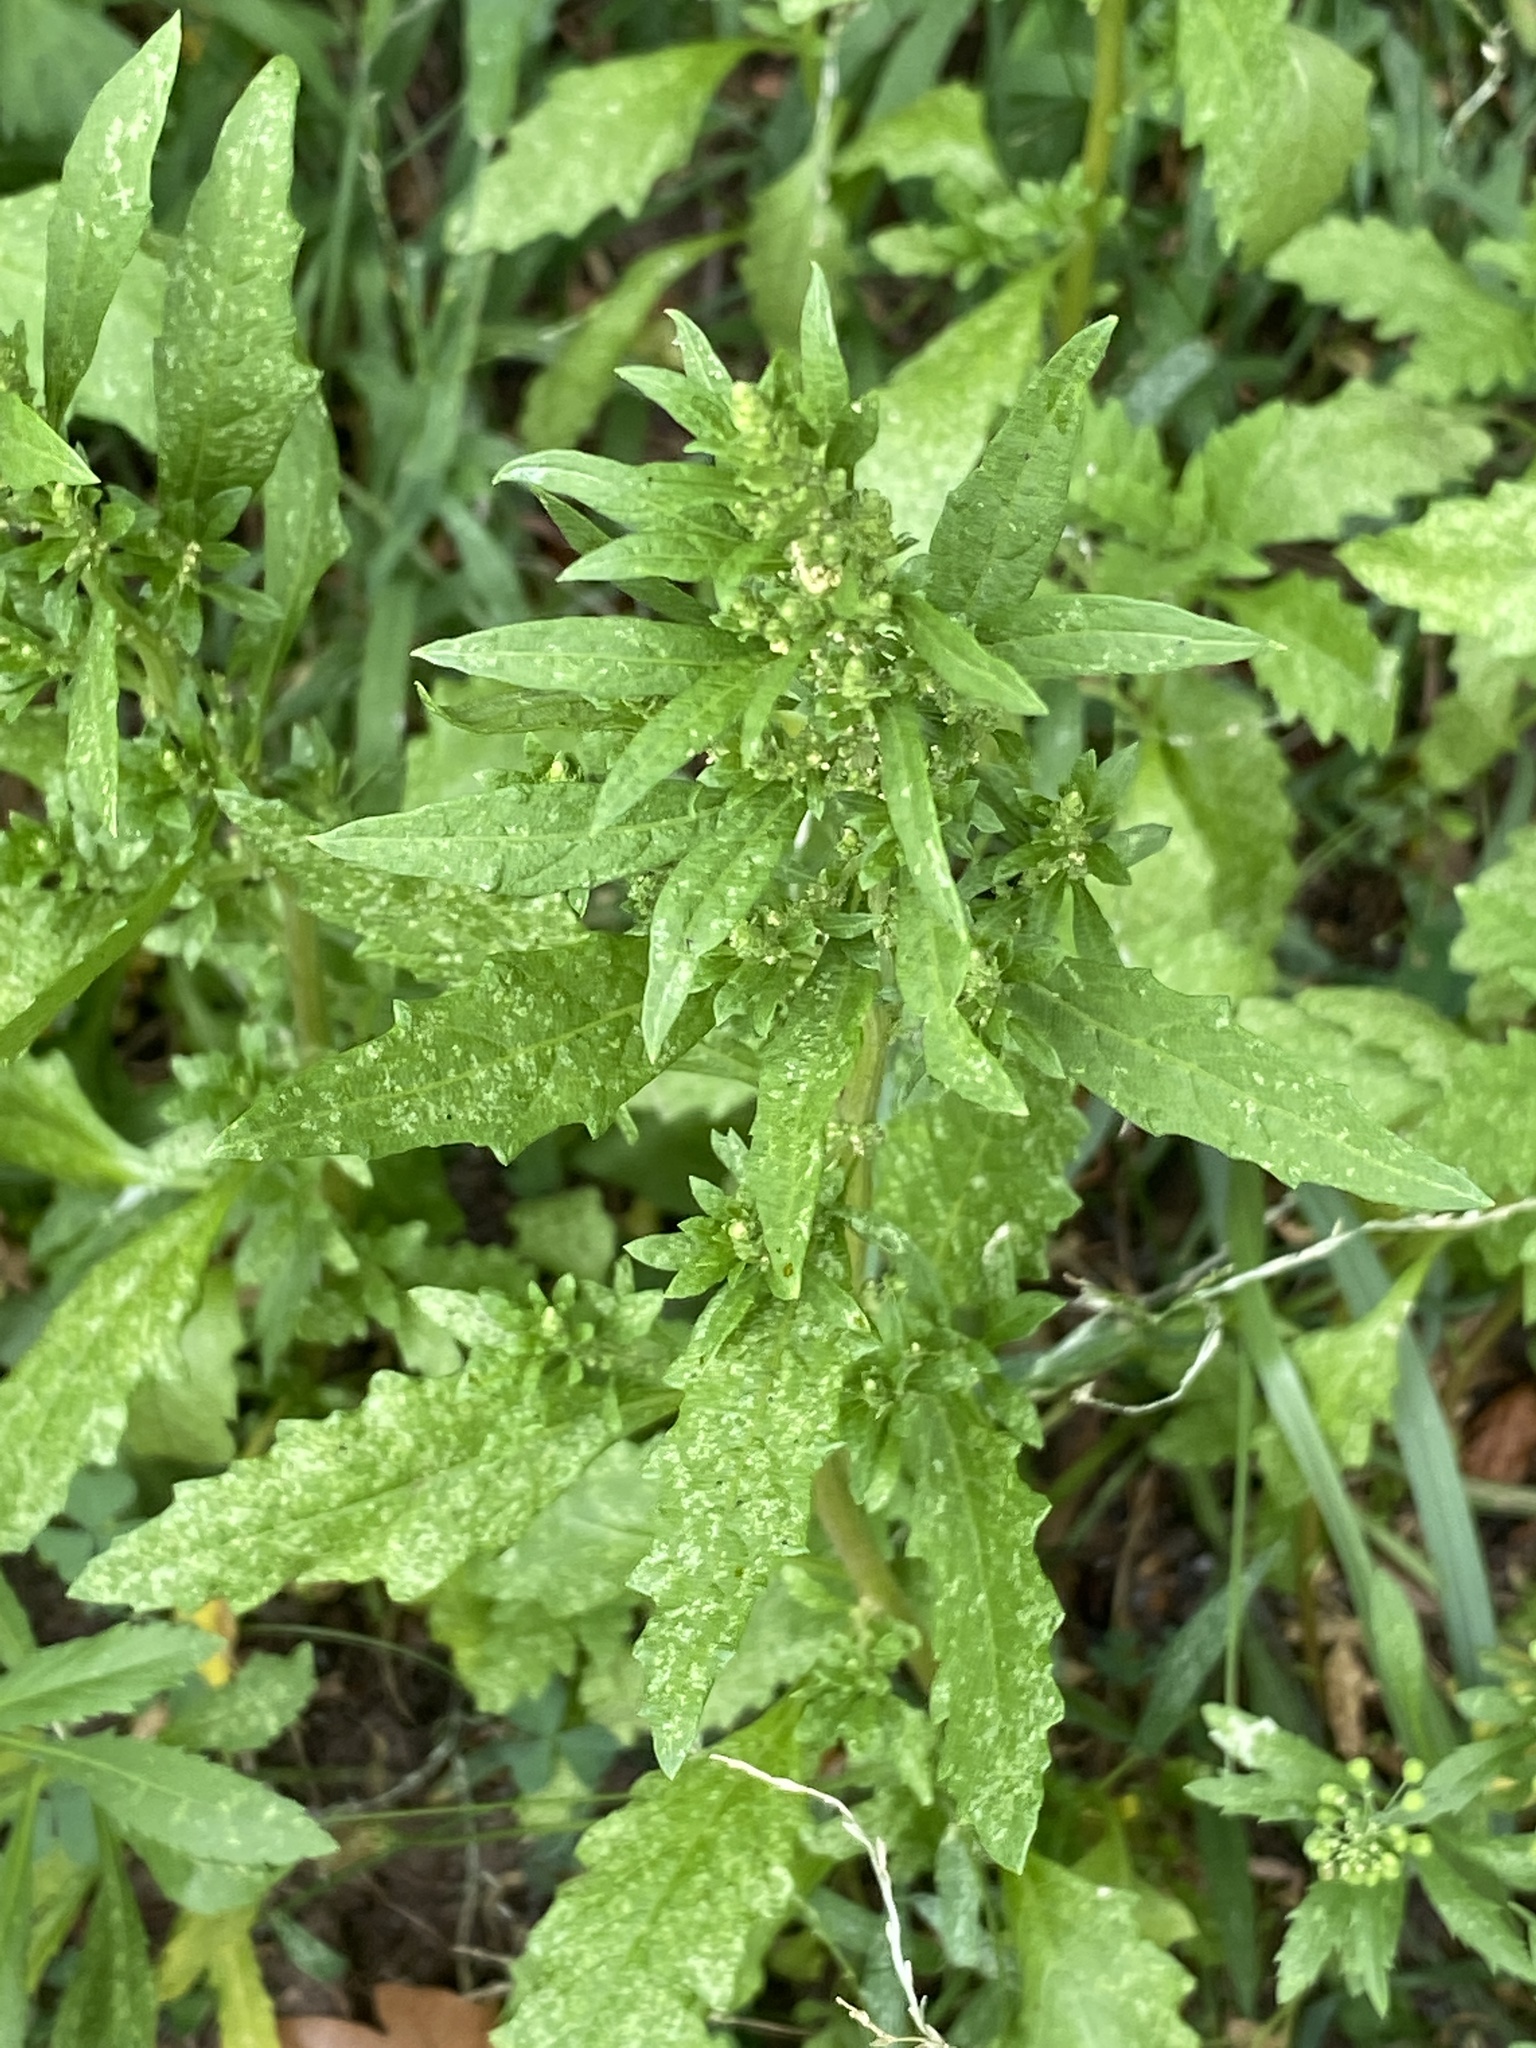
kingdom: Plantae
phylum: Tracheophyta
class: Magnoliopsida
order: Caryophyllales
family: Amaranthaceae
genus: Dysphania
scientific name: Dysphania ambrosioides
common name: Wormseed
